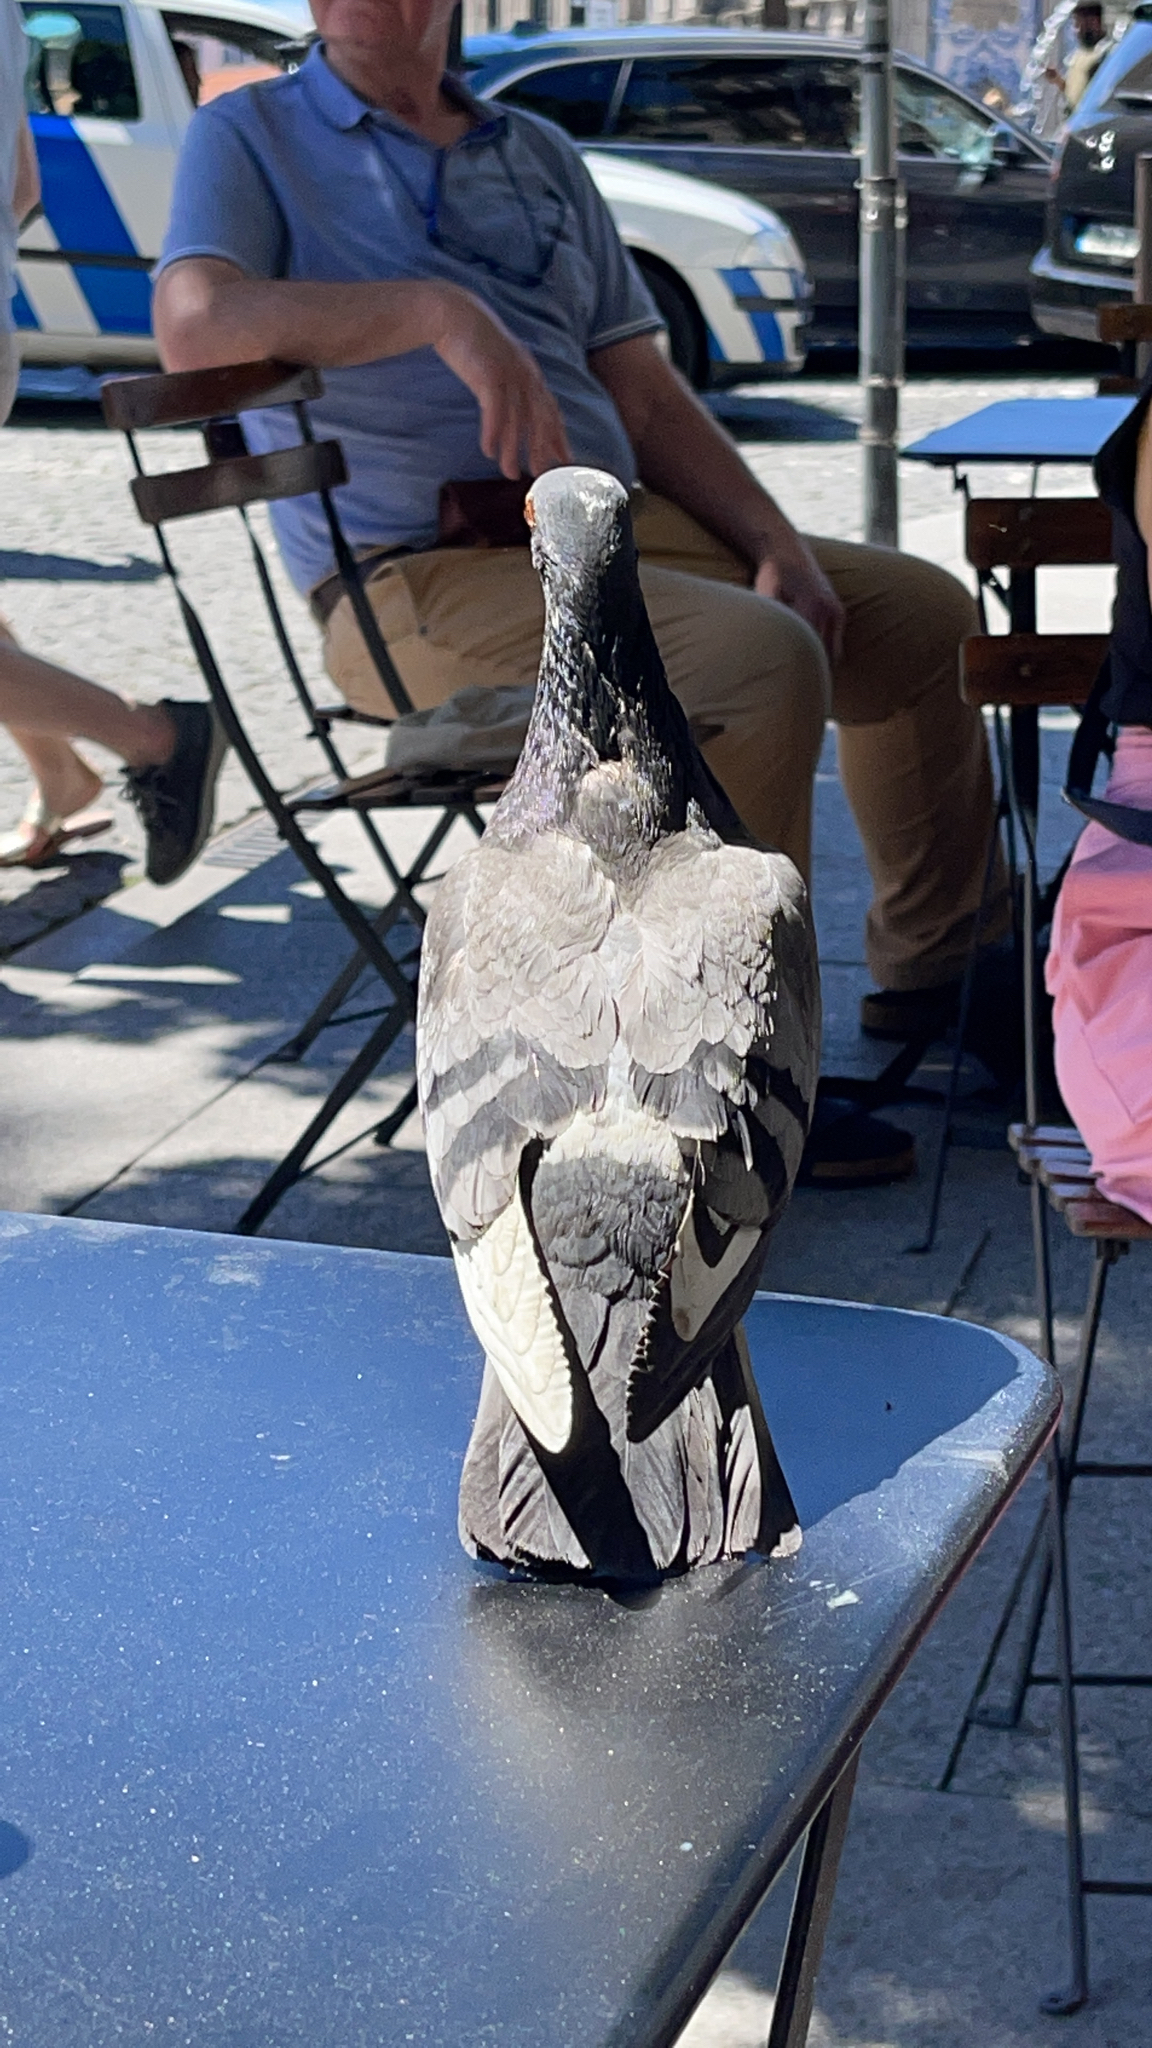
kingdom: Animalia
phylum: Chordata
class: Aves
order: Columbiformes
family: Columbidae
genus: Columba
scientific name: Columba livia
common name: Rock pigeon
